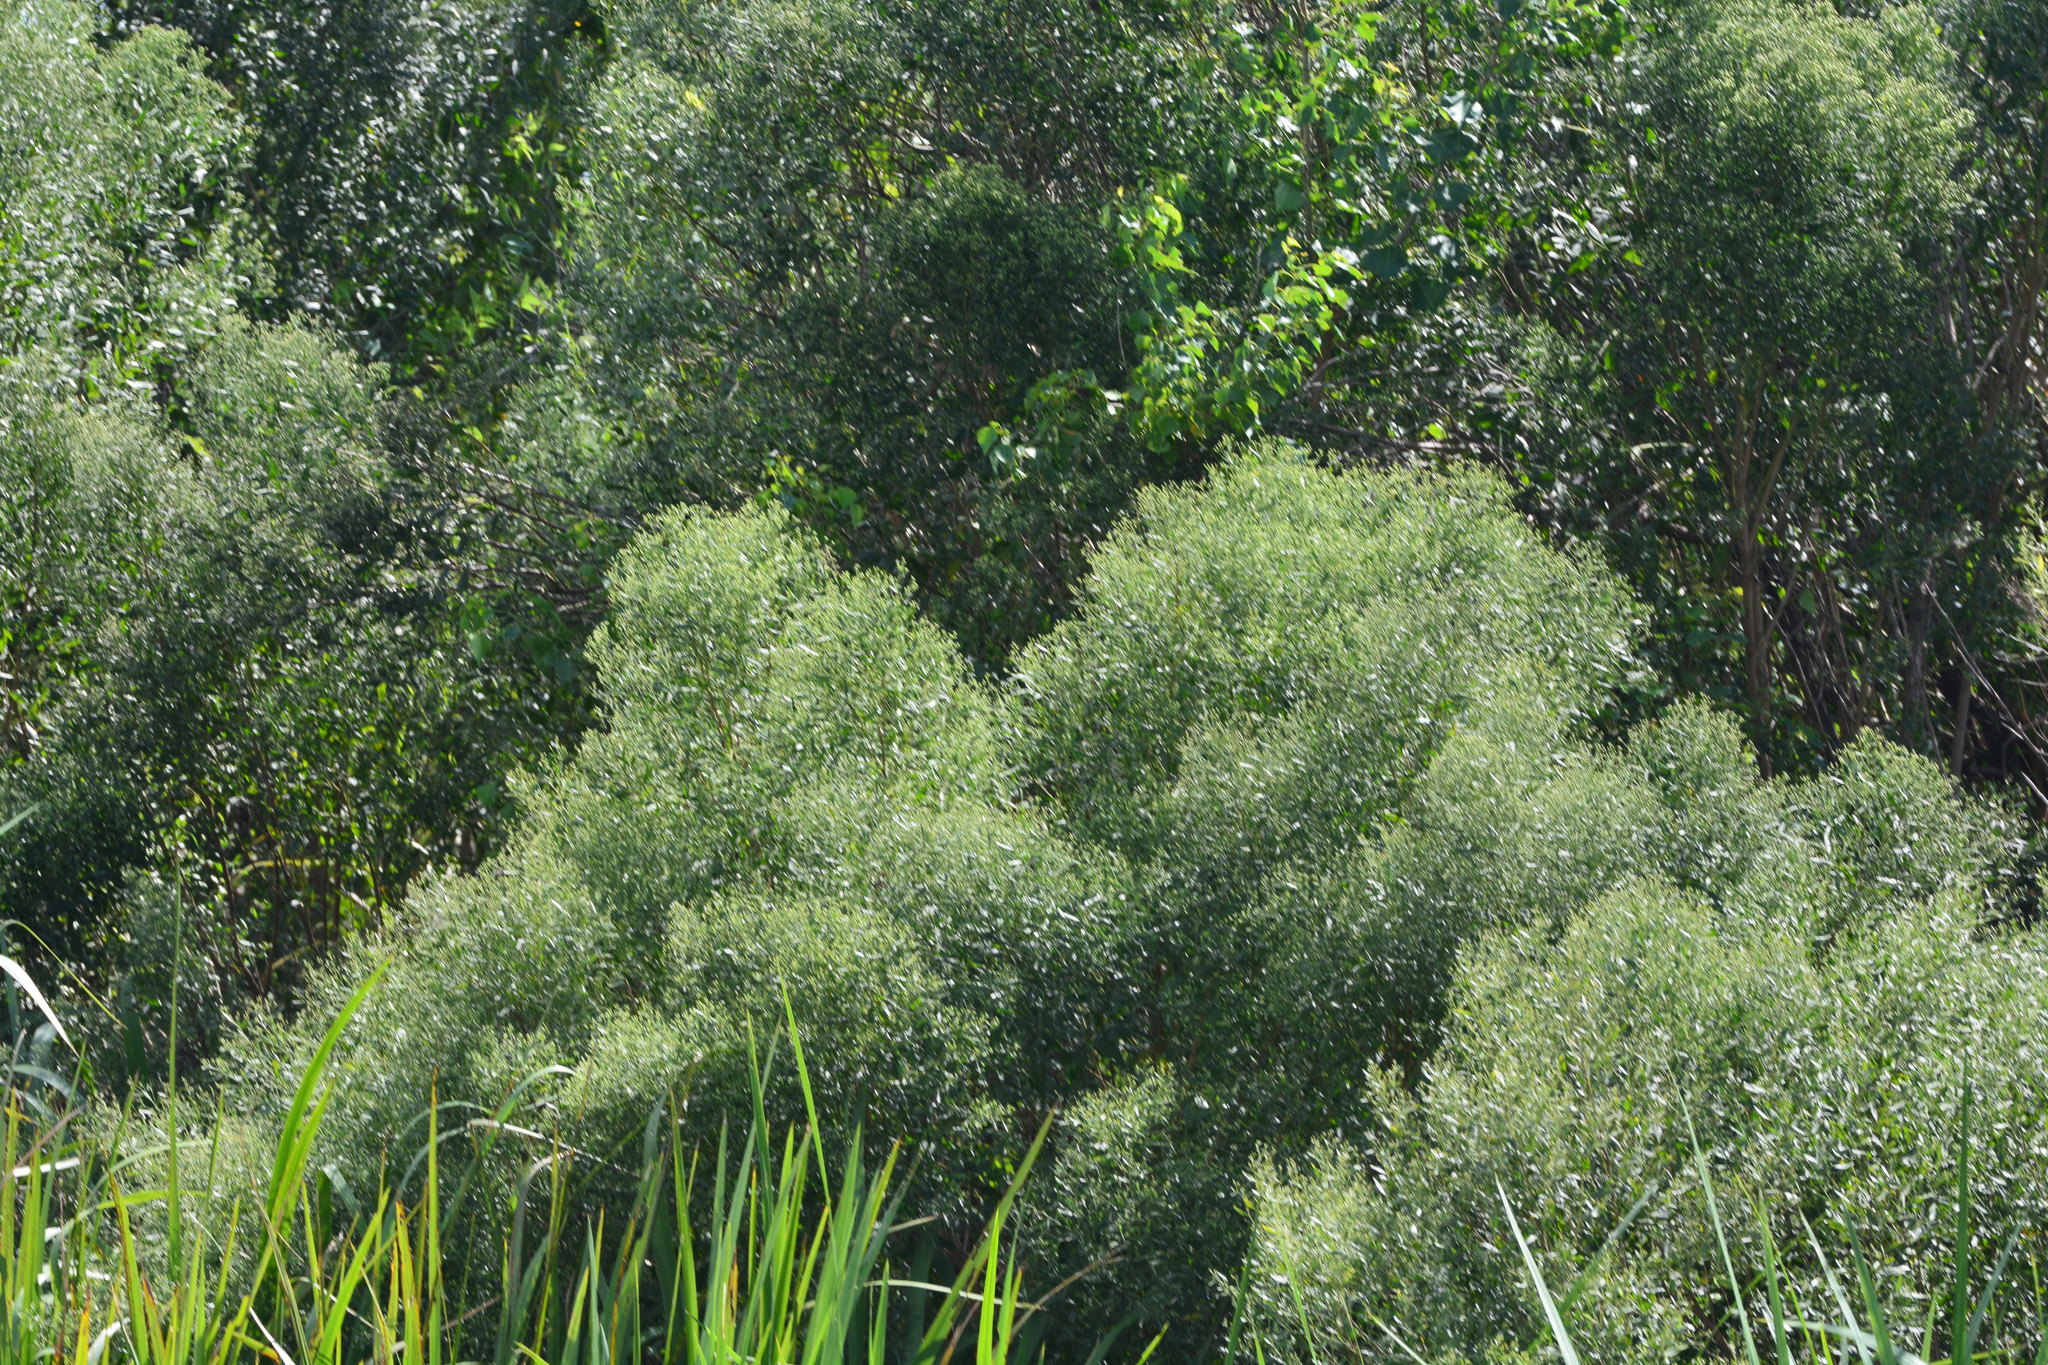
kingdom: Plantae
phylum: Tracheophyta
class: Magnoliopsida
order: Asterales
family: Asteraceae
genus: Baccharis
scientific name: Baccharis halimifolia
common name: Eastern baccharis
